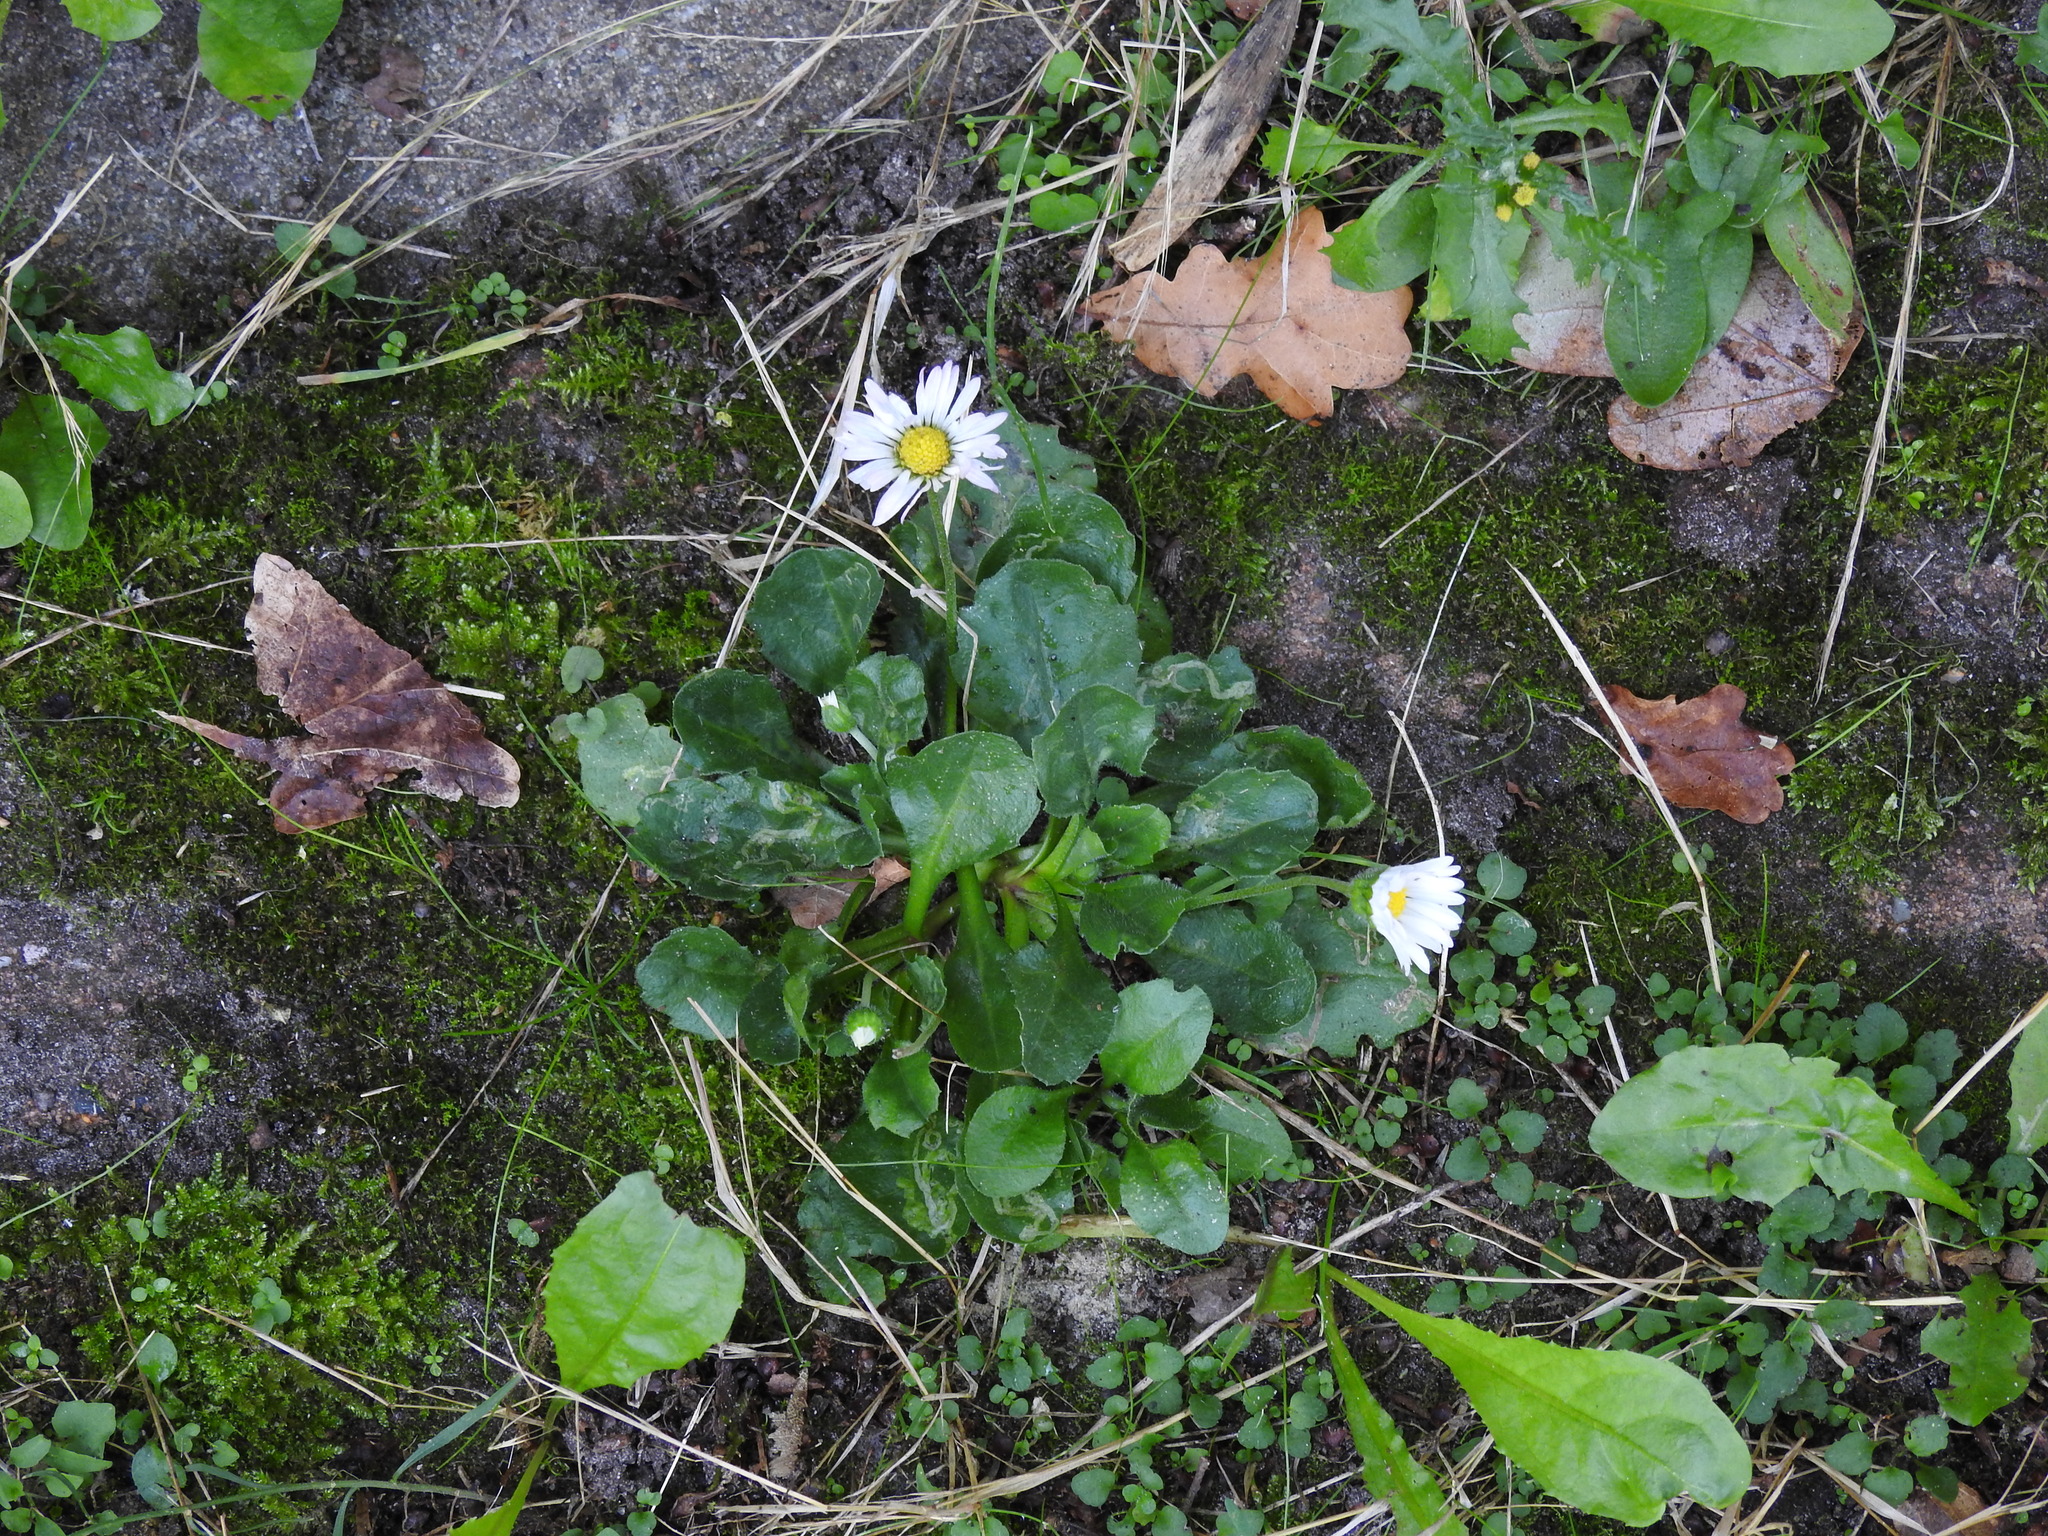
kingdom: Plantae
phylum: Tracheophyta
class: Magnoliopsida
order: Asterales
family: Asteraceae
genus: Bellis
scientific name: Bellis perennis
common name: Lawndaisy
